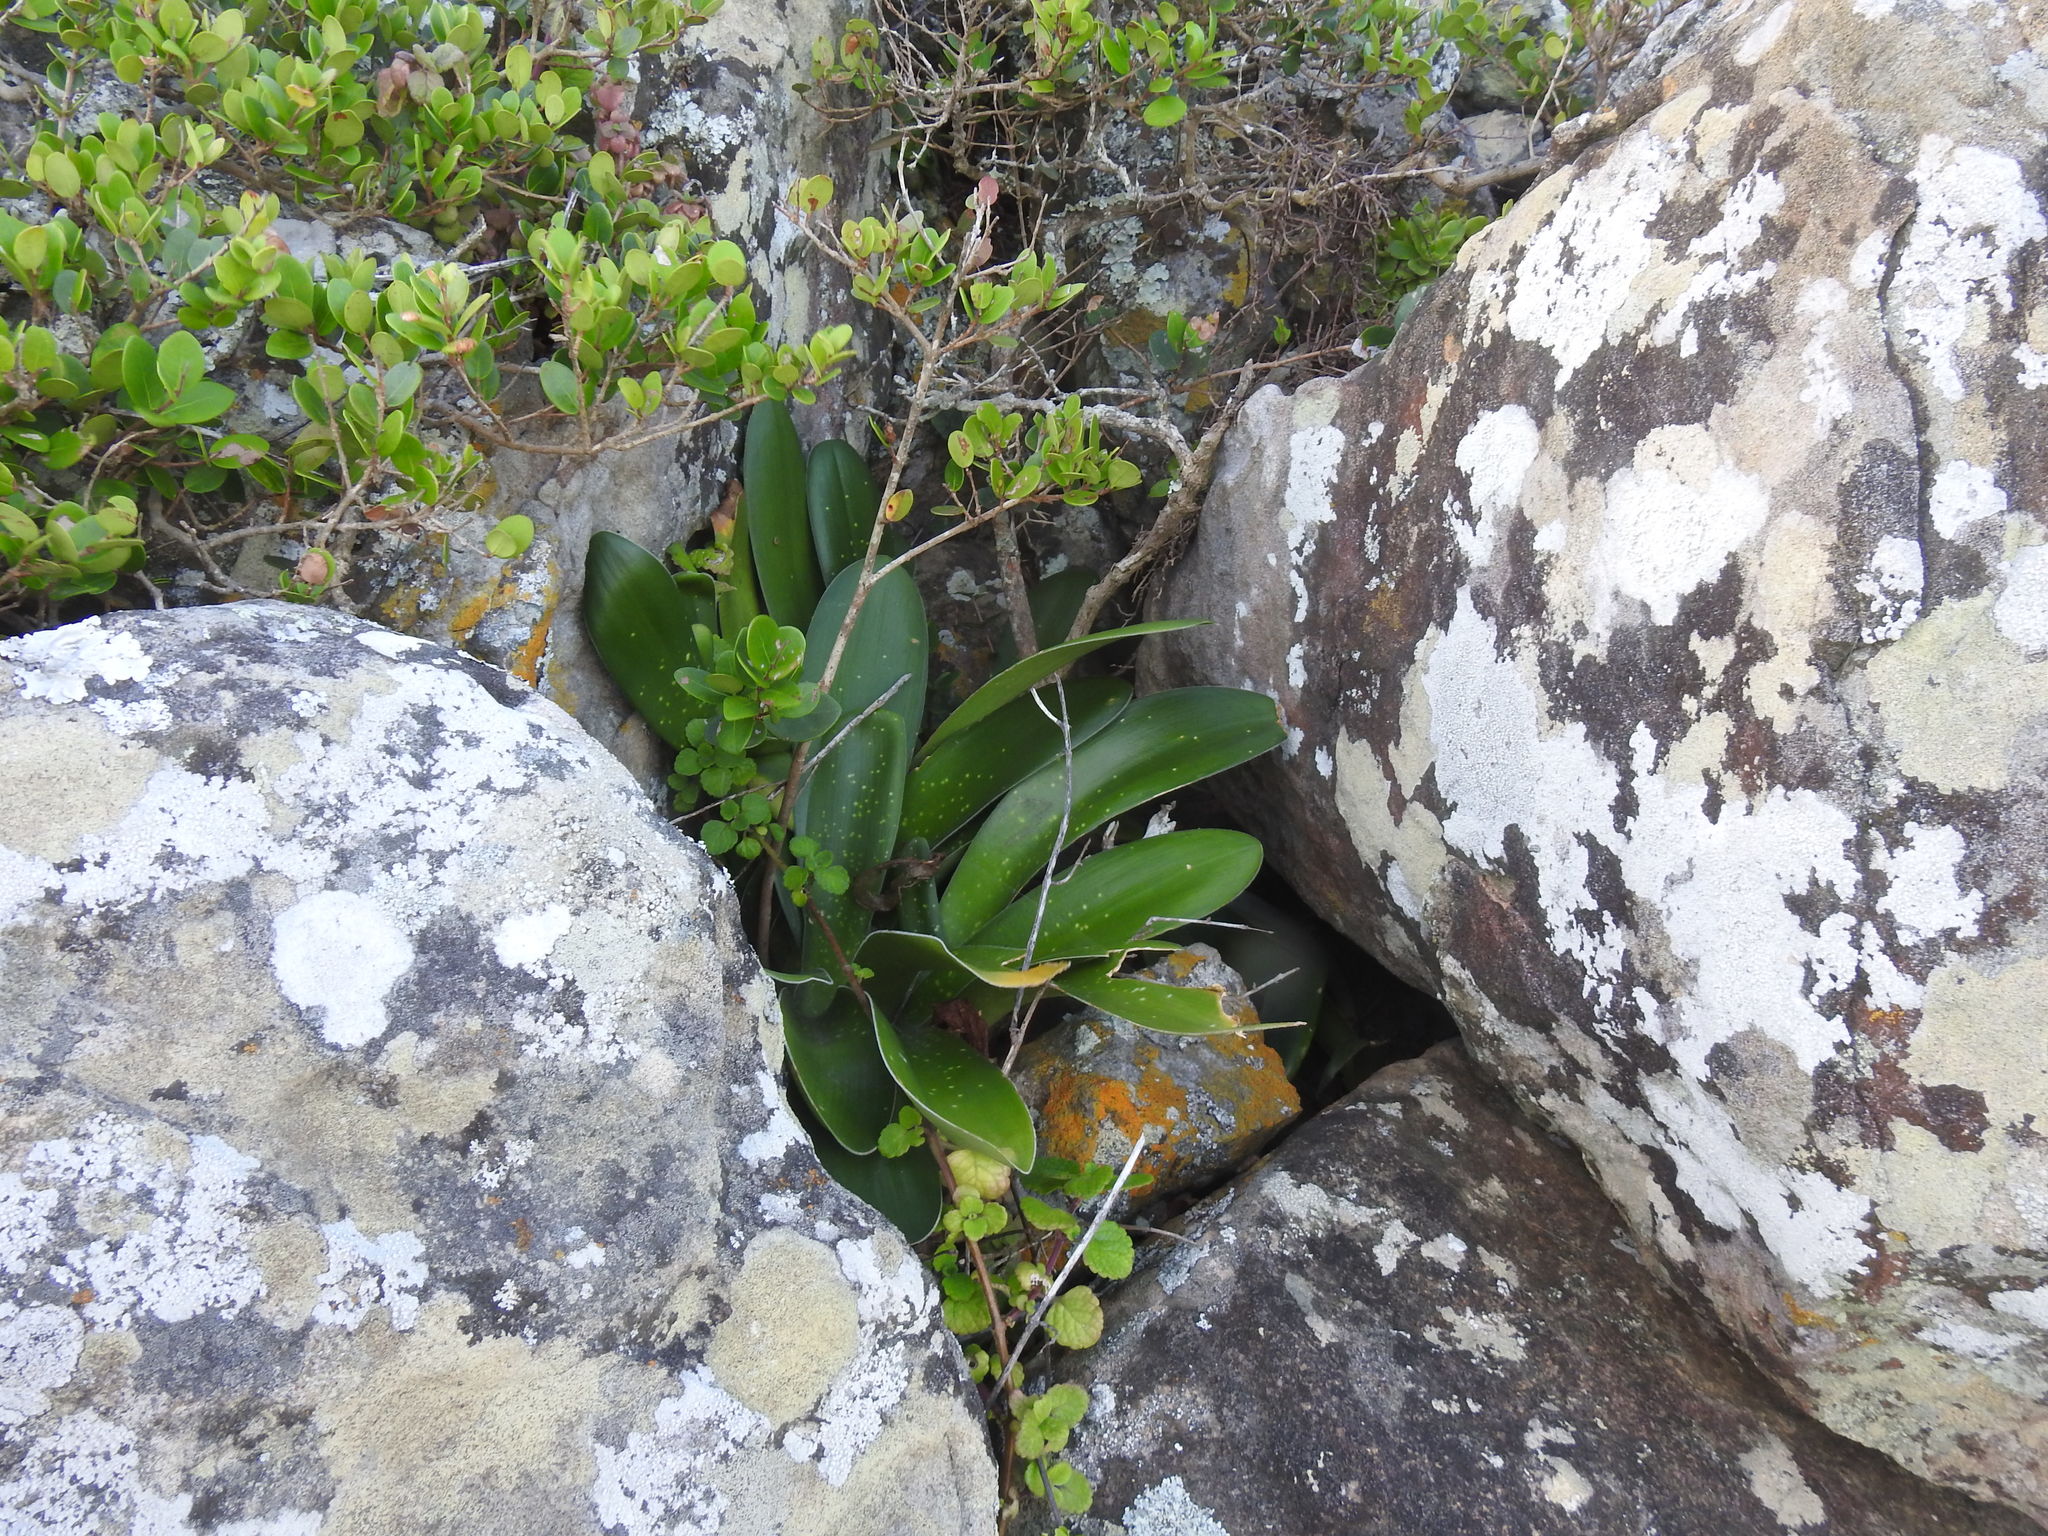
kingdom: Plantae
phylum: Tracheophyta
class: Liliopsida
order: Asparagales
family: Amaryllidaceae
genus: Haemanthus
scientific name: Haemanthus albiflos
